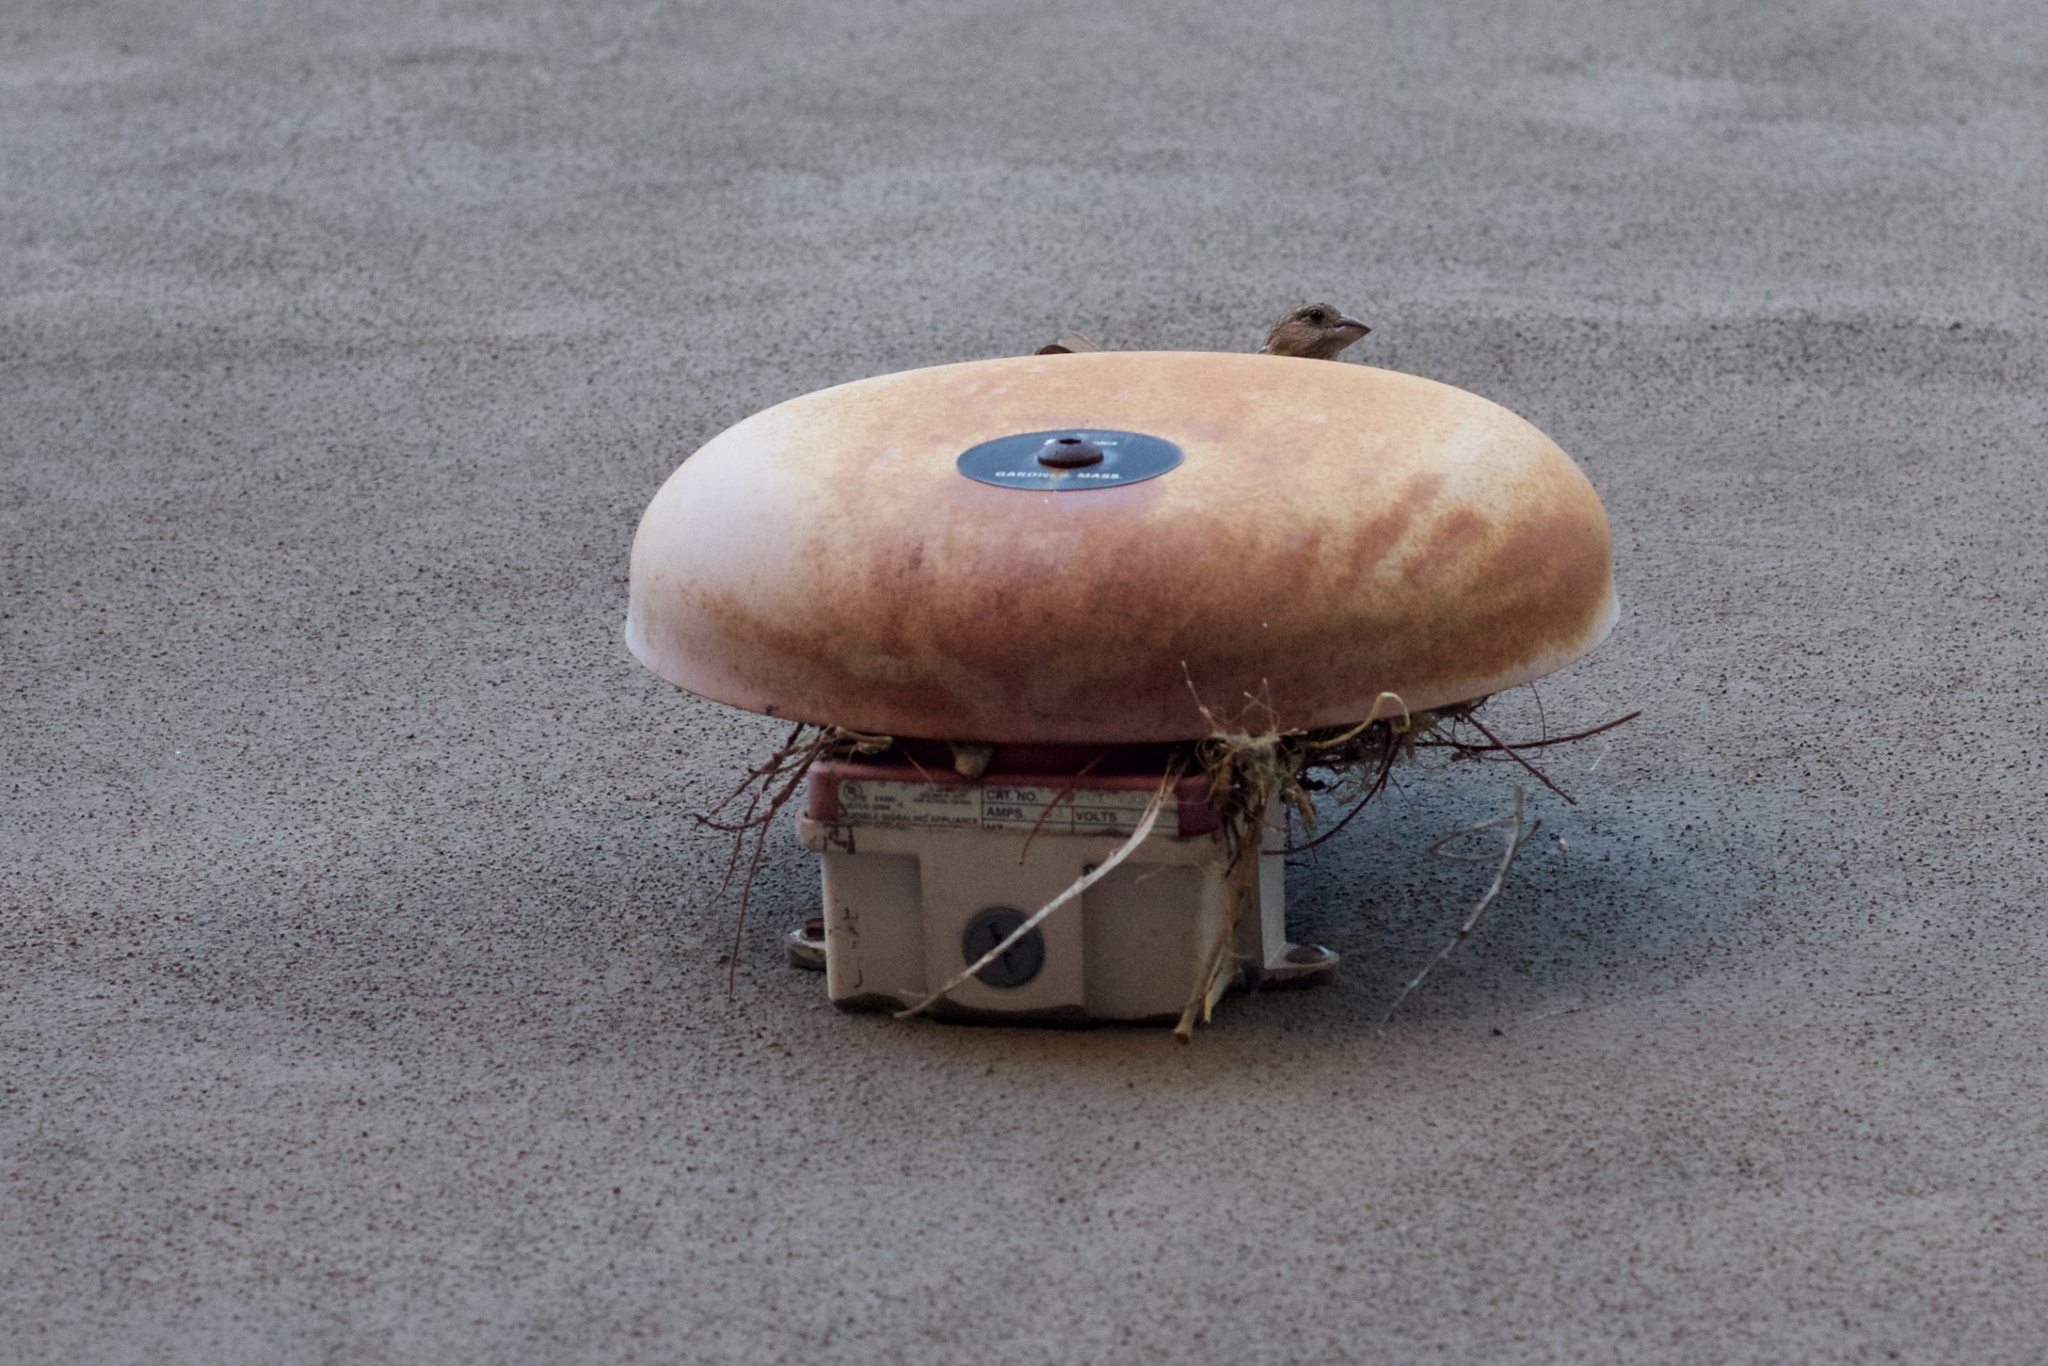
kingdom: Animalia
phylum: Chordata
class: Aves
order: Passeriformes
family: Fringillidae
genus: Haemorhous
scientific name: Haemorhous mexicanus
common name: House finch
